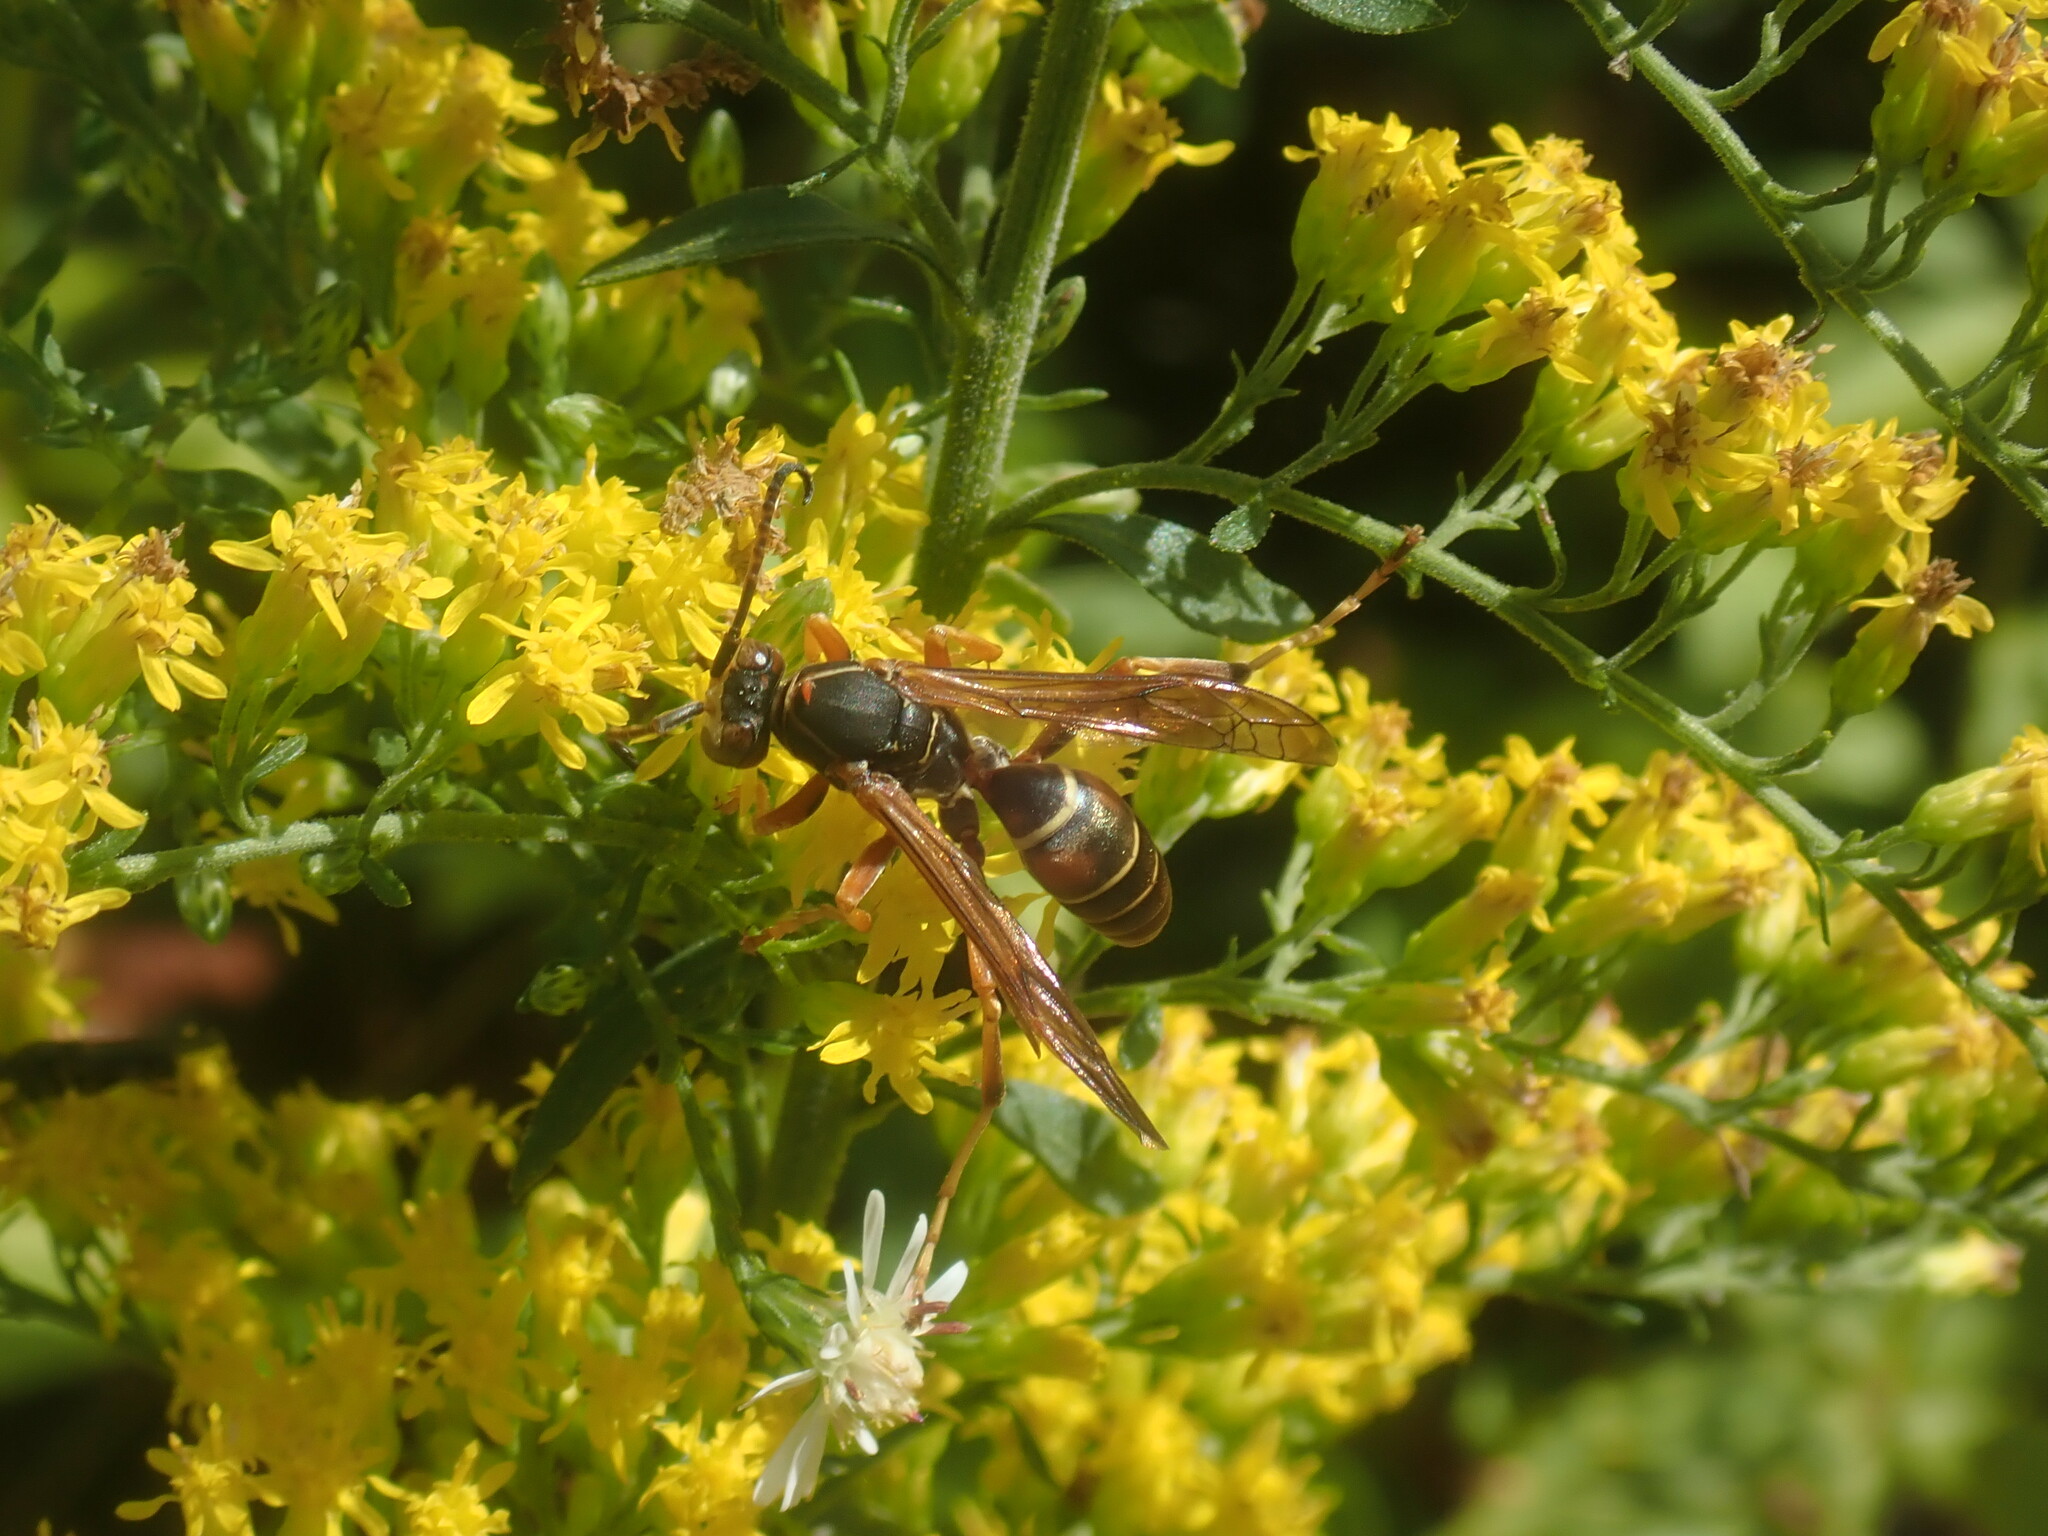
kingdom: Animalia
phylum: Arthropoda
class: Insecta
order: Hymenoptera
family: Eumenidae
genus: Polistes
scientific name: Polistes fuscatus
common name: Dark paper wasp
